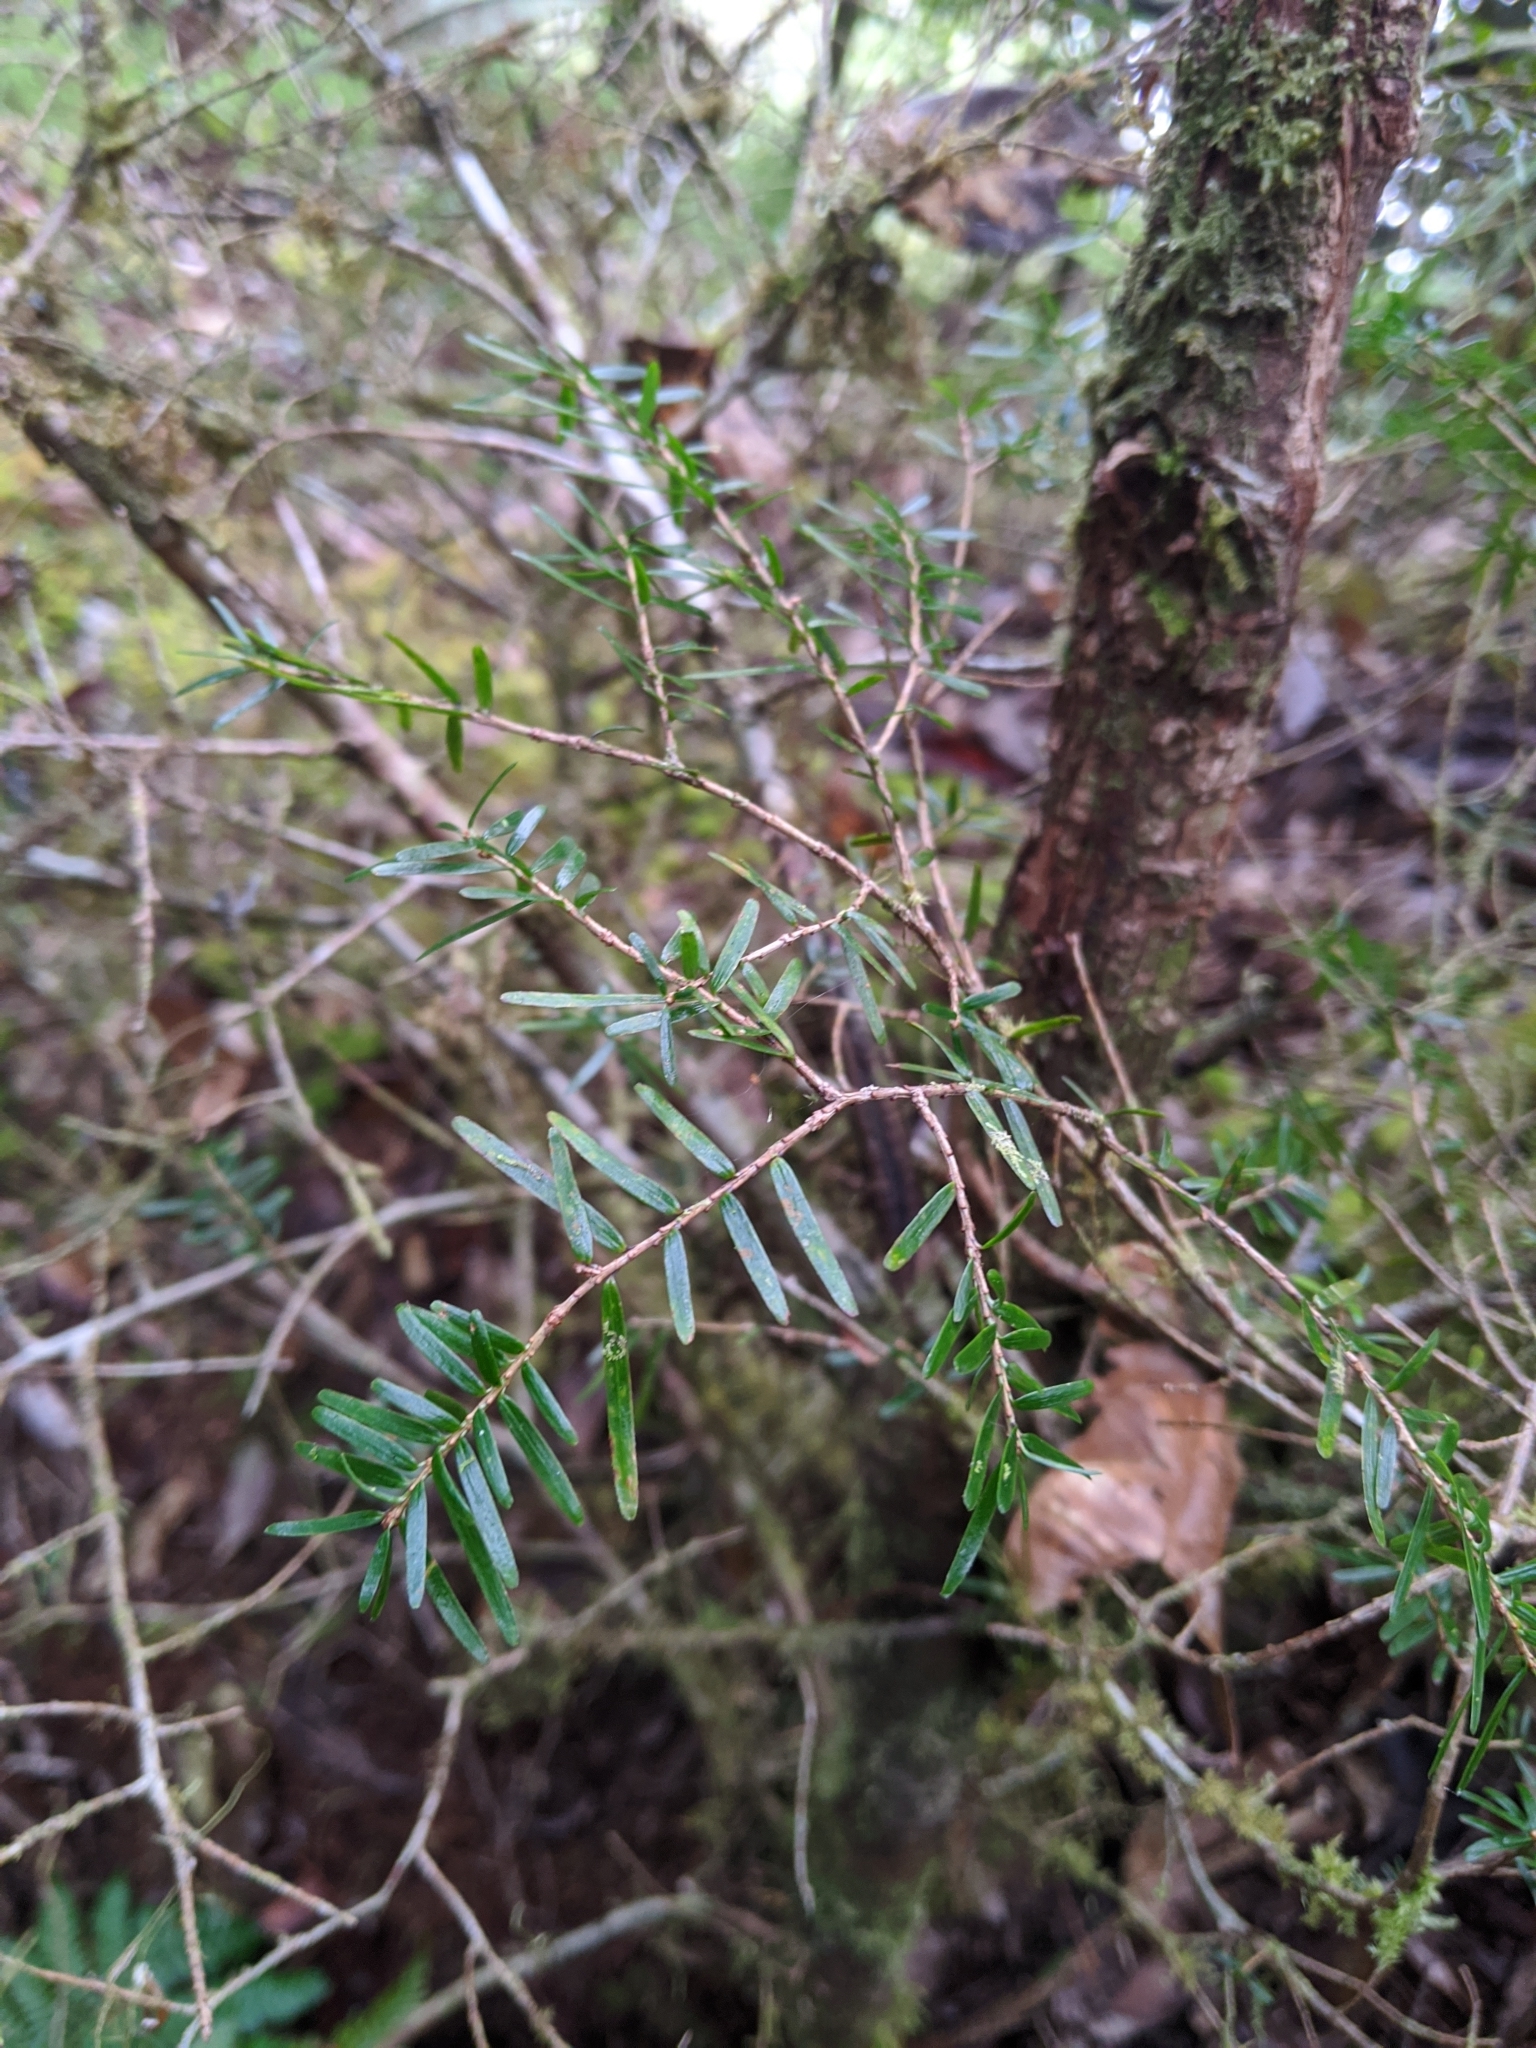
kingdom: Plantae
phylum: Tracheophyta
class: Pinopsida
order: Pinales
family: Pinaceae
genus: Tsuga
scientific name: Tsuga chinensis
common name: Chinese hemlock
